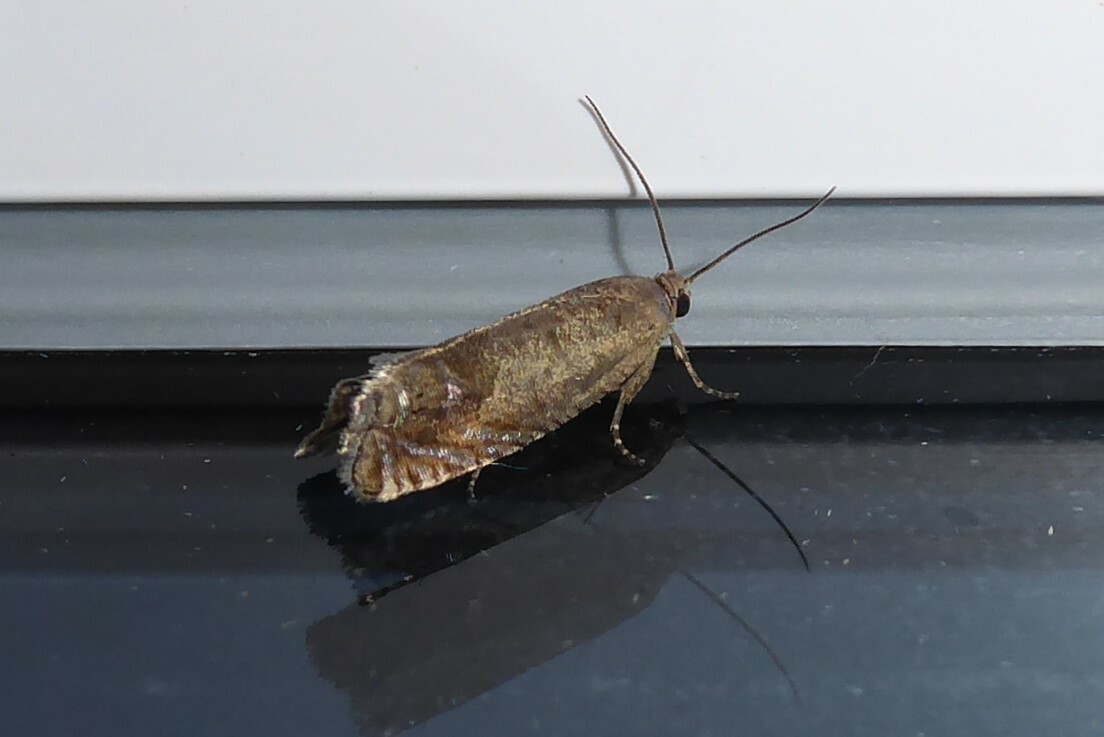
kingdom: Animalia
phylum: Arthropoda
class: Insecta
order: Lepidoptera
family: Tortricidae
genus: Cydia
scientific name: Cydia succedana
